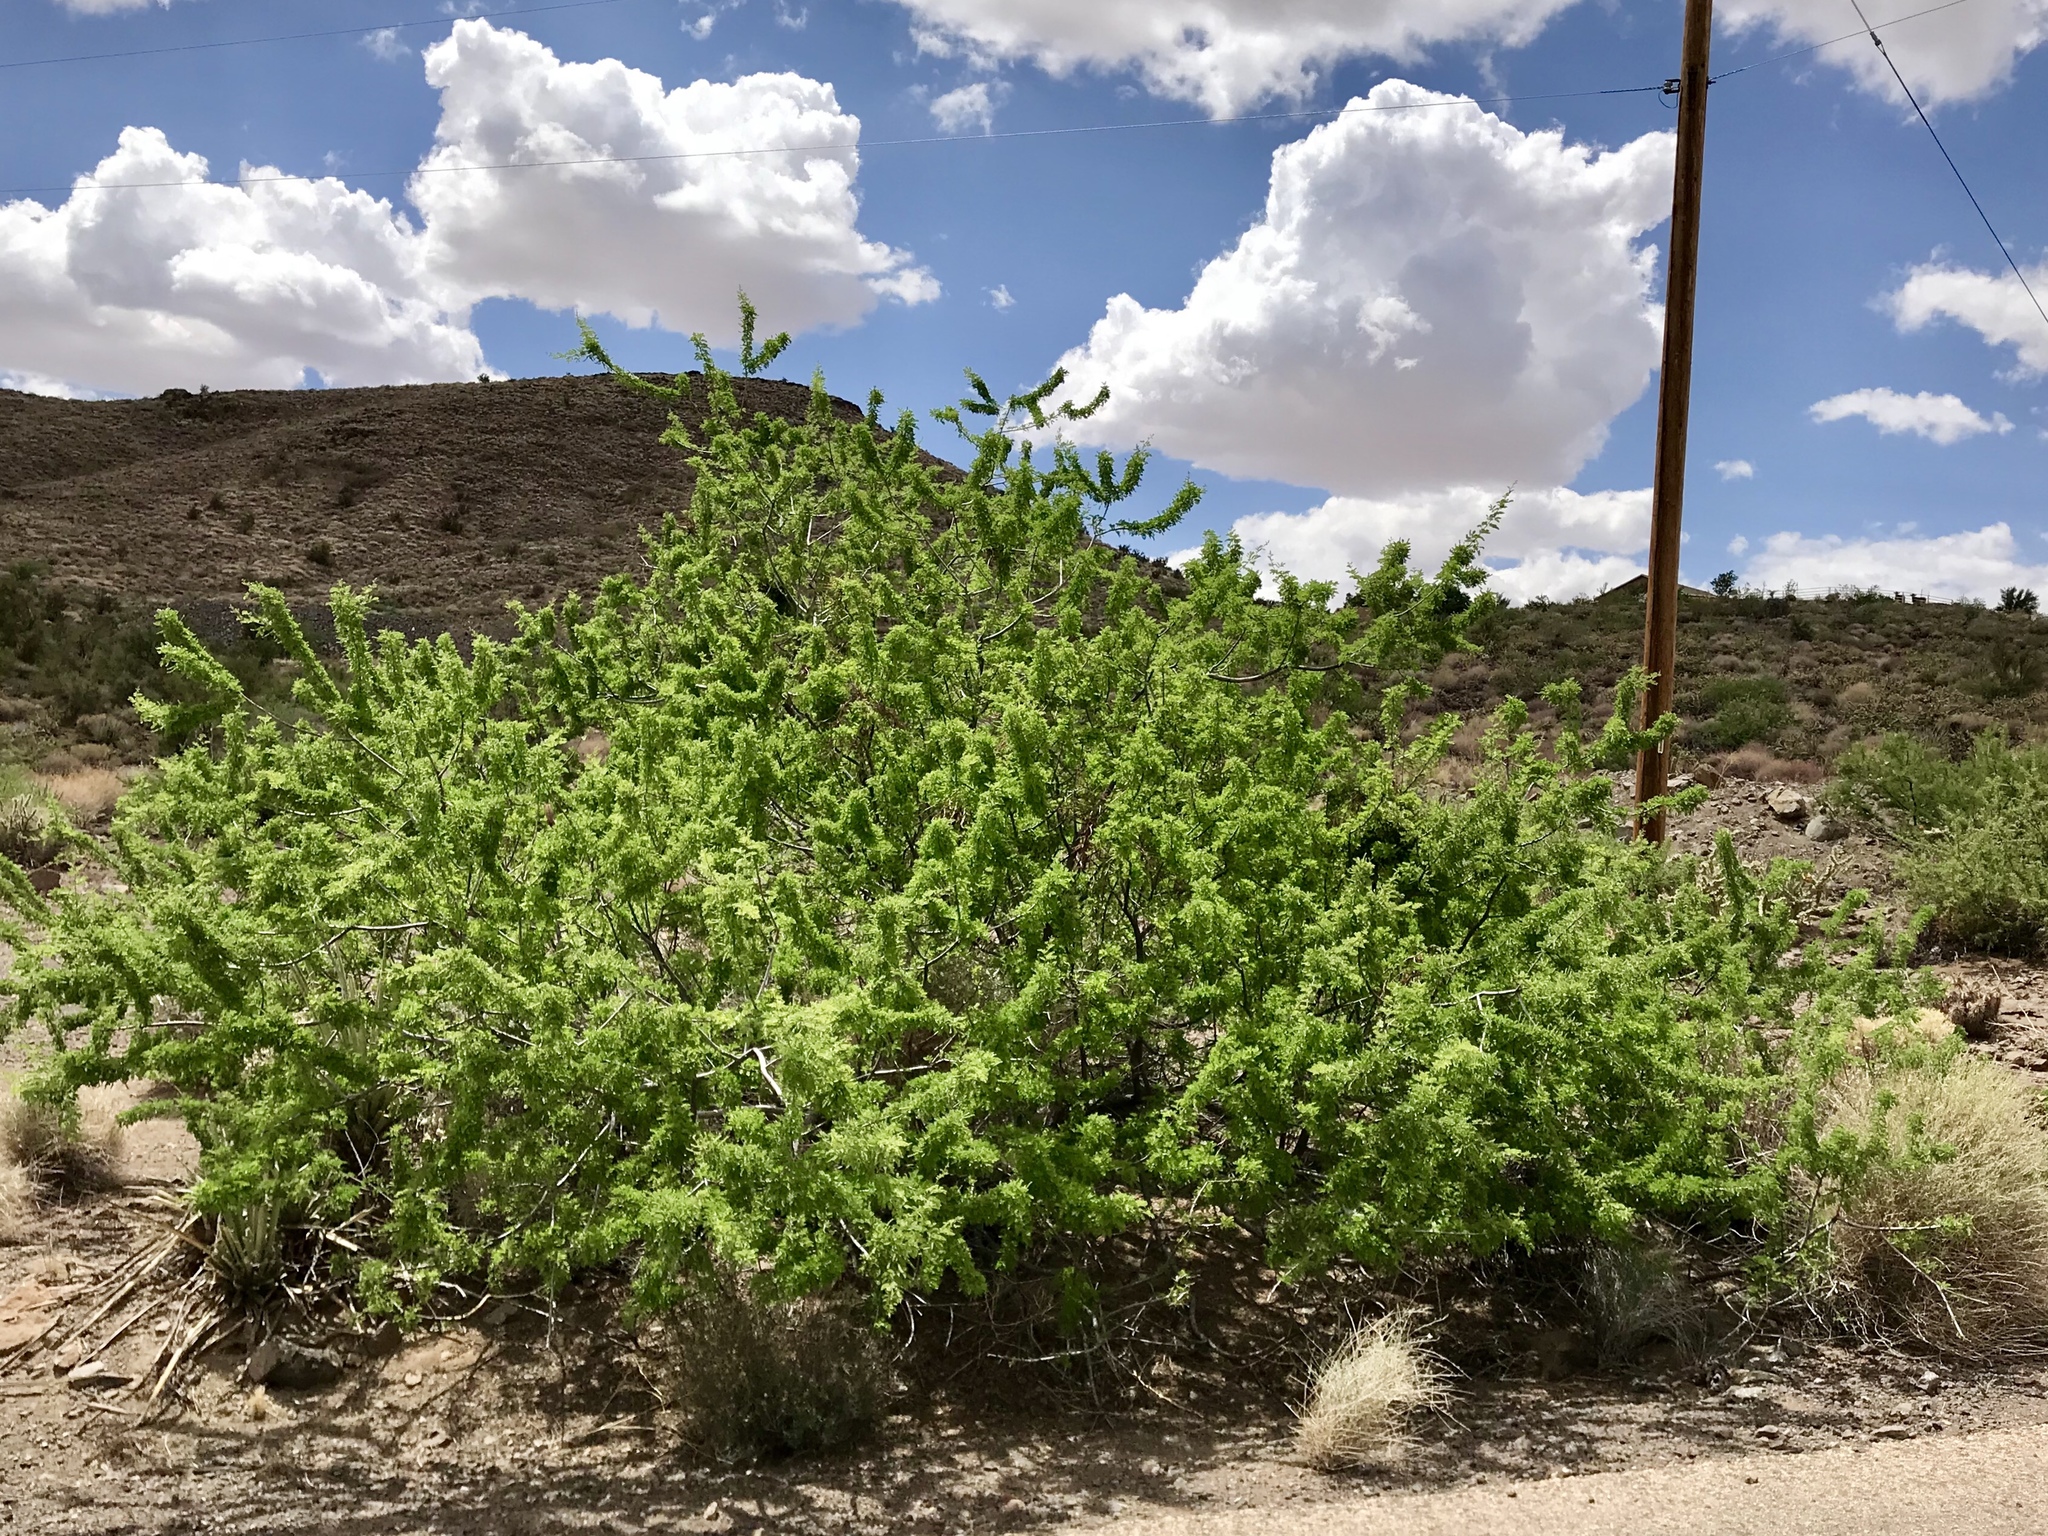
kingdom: Plantae
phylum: Tracheophyta
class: Magnoliopsida
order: Fabales
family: Fabaceae
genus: Senegalia
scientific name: Senegalia greggii
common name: Texas-mimosa
